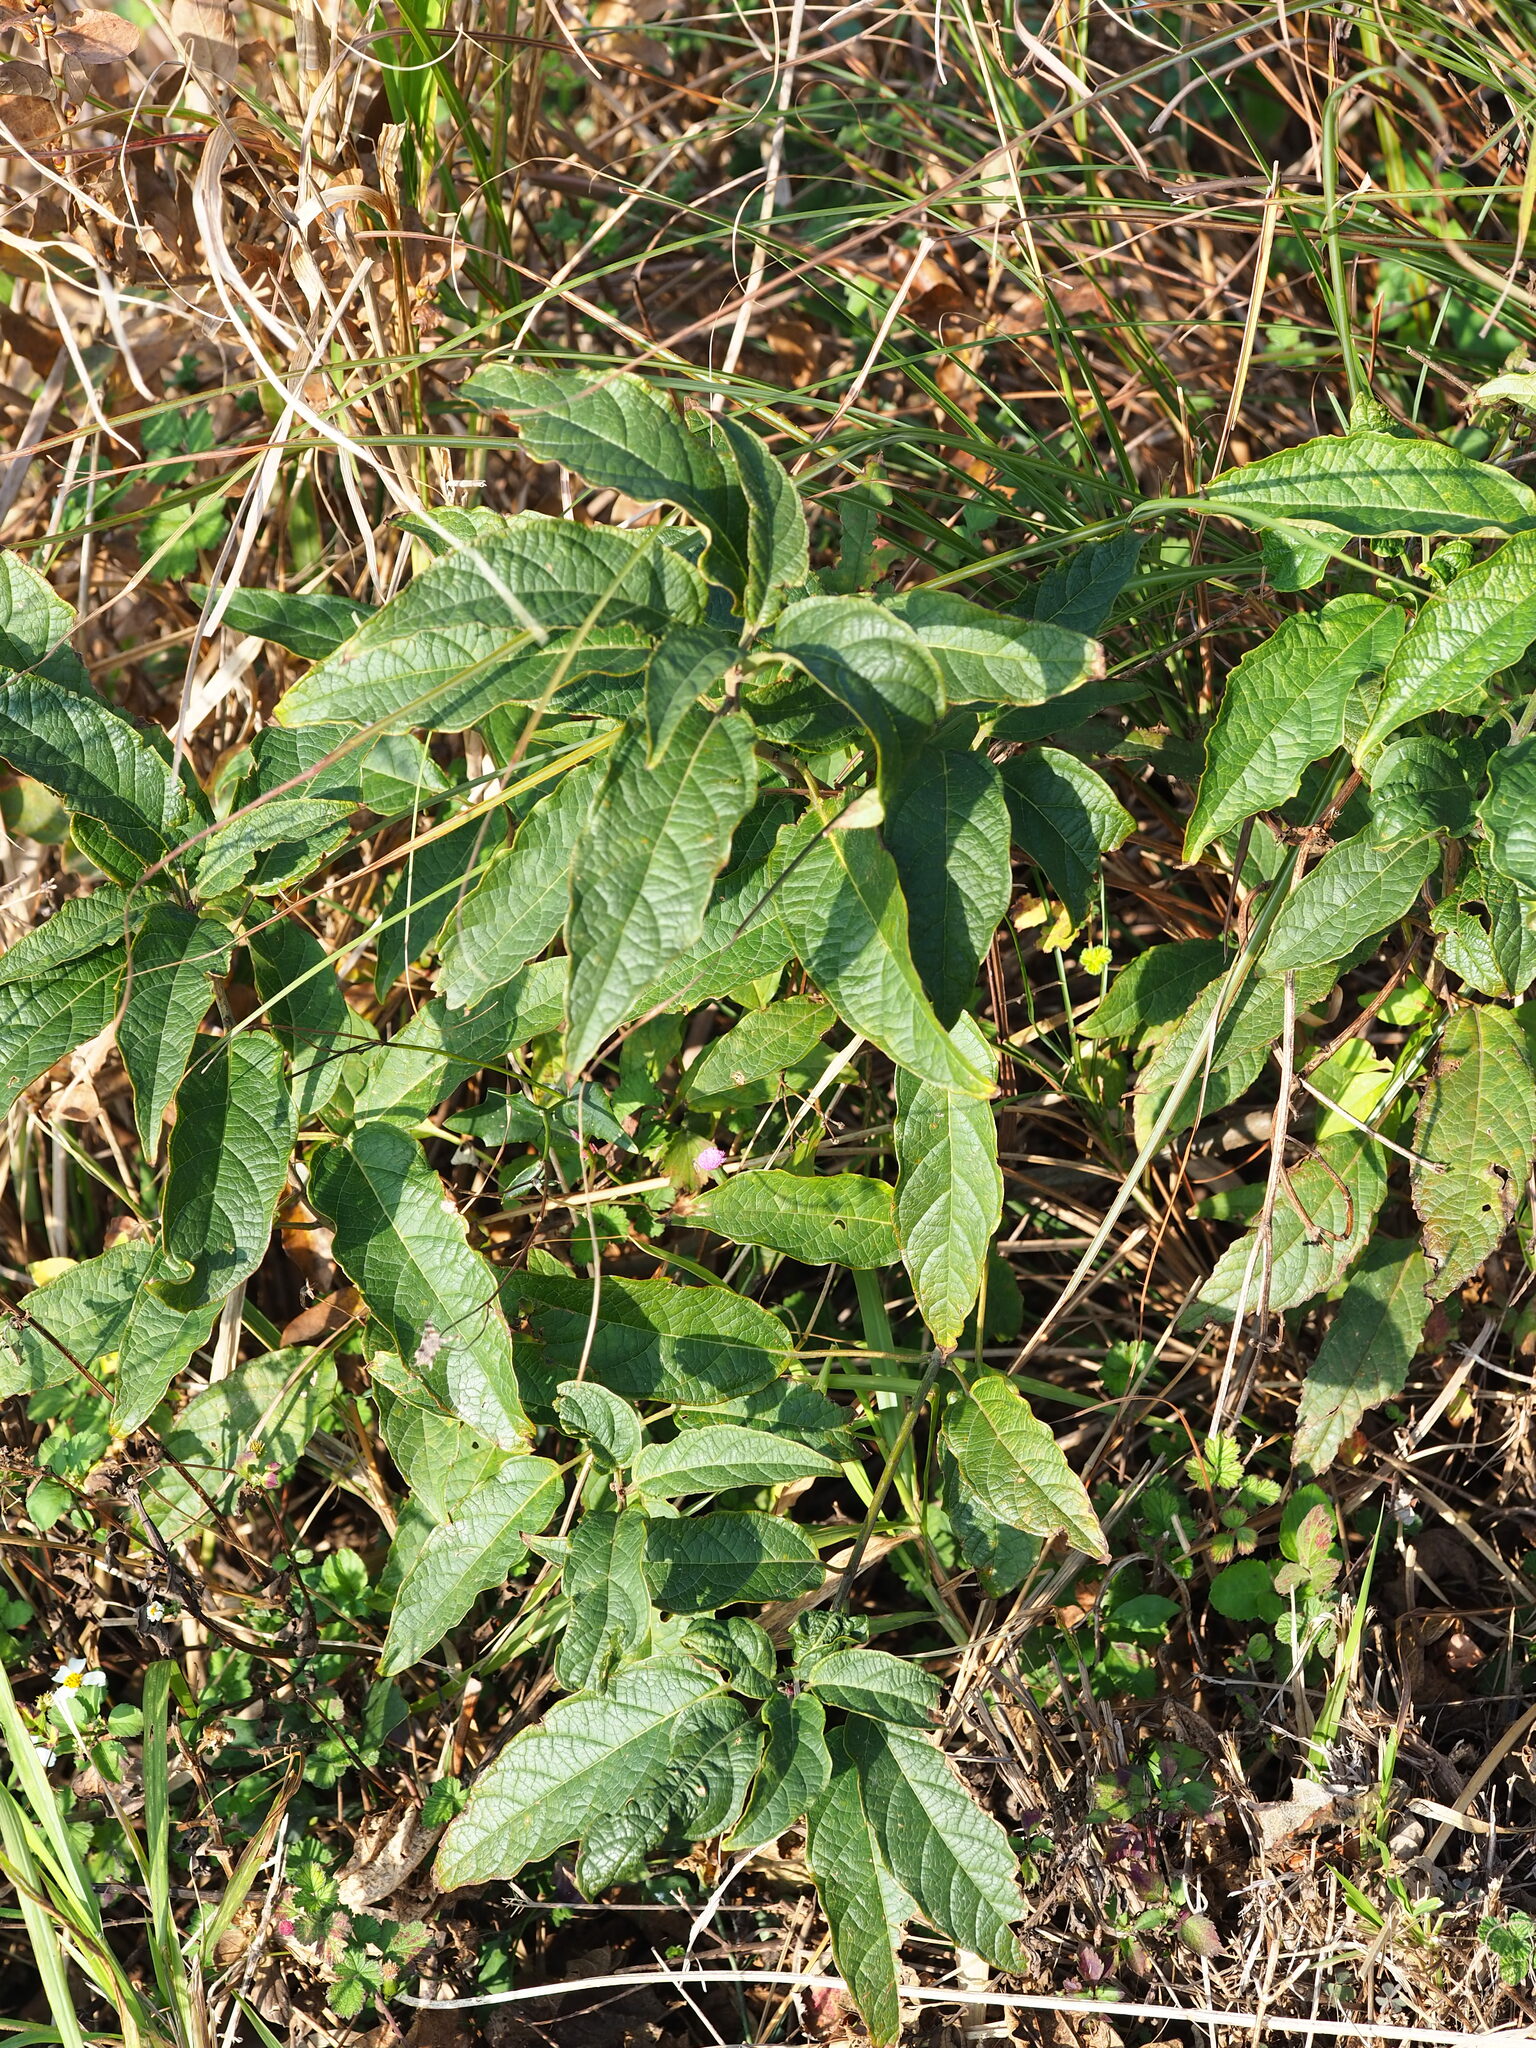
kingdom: Plantae
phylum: Tracheophyta
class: Magnoliopsida
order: Lamiales
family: Lamiaceae
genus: Clerodendrum
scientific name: Clerodendrum cyrtophyllum
